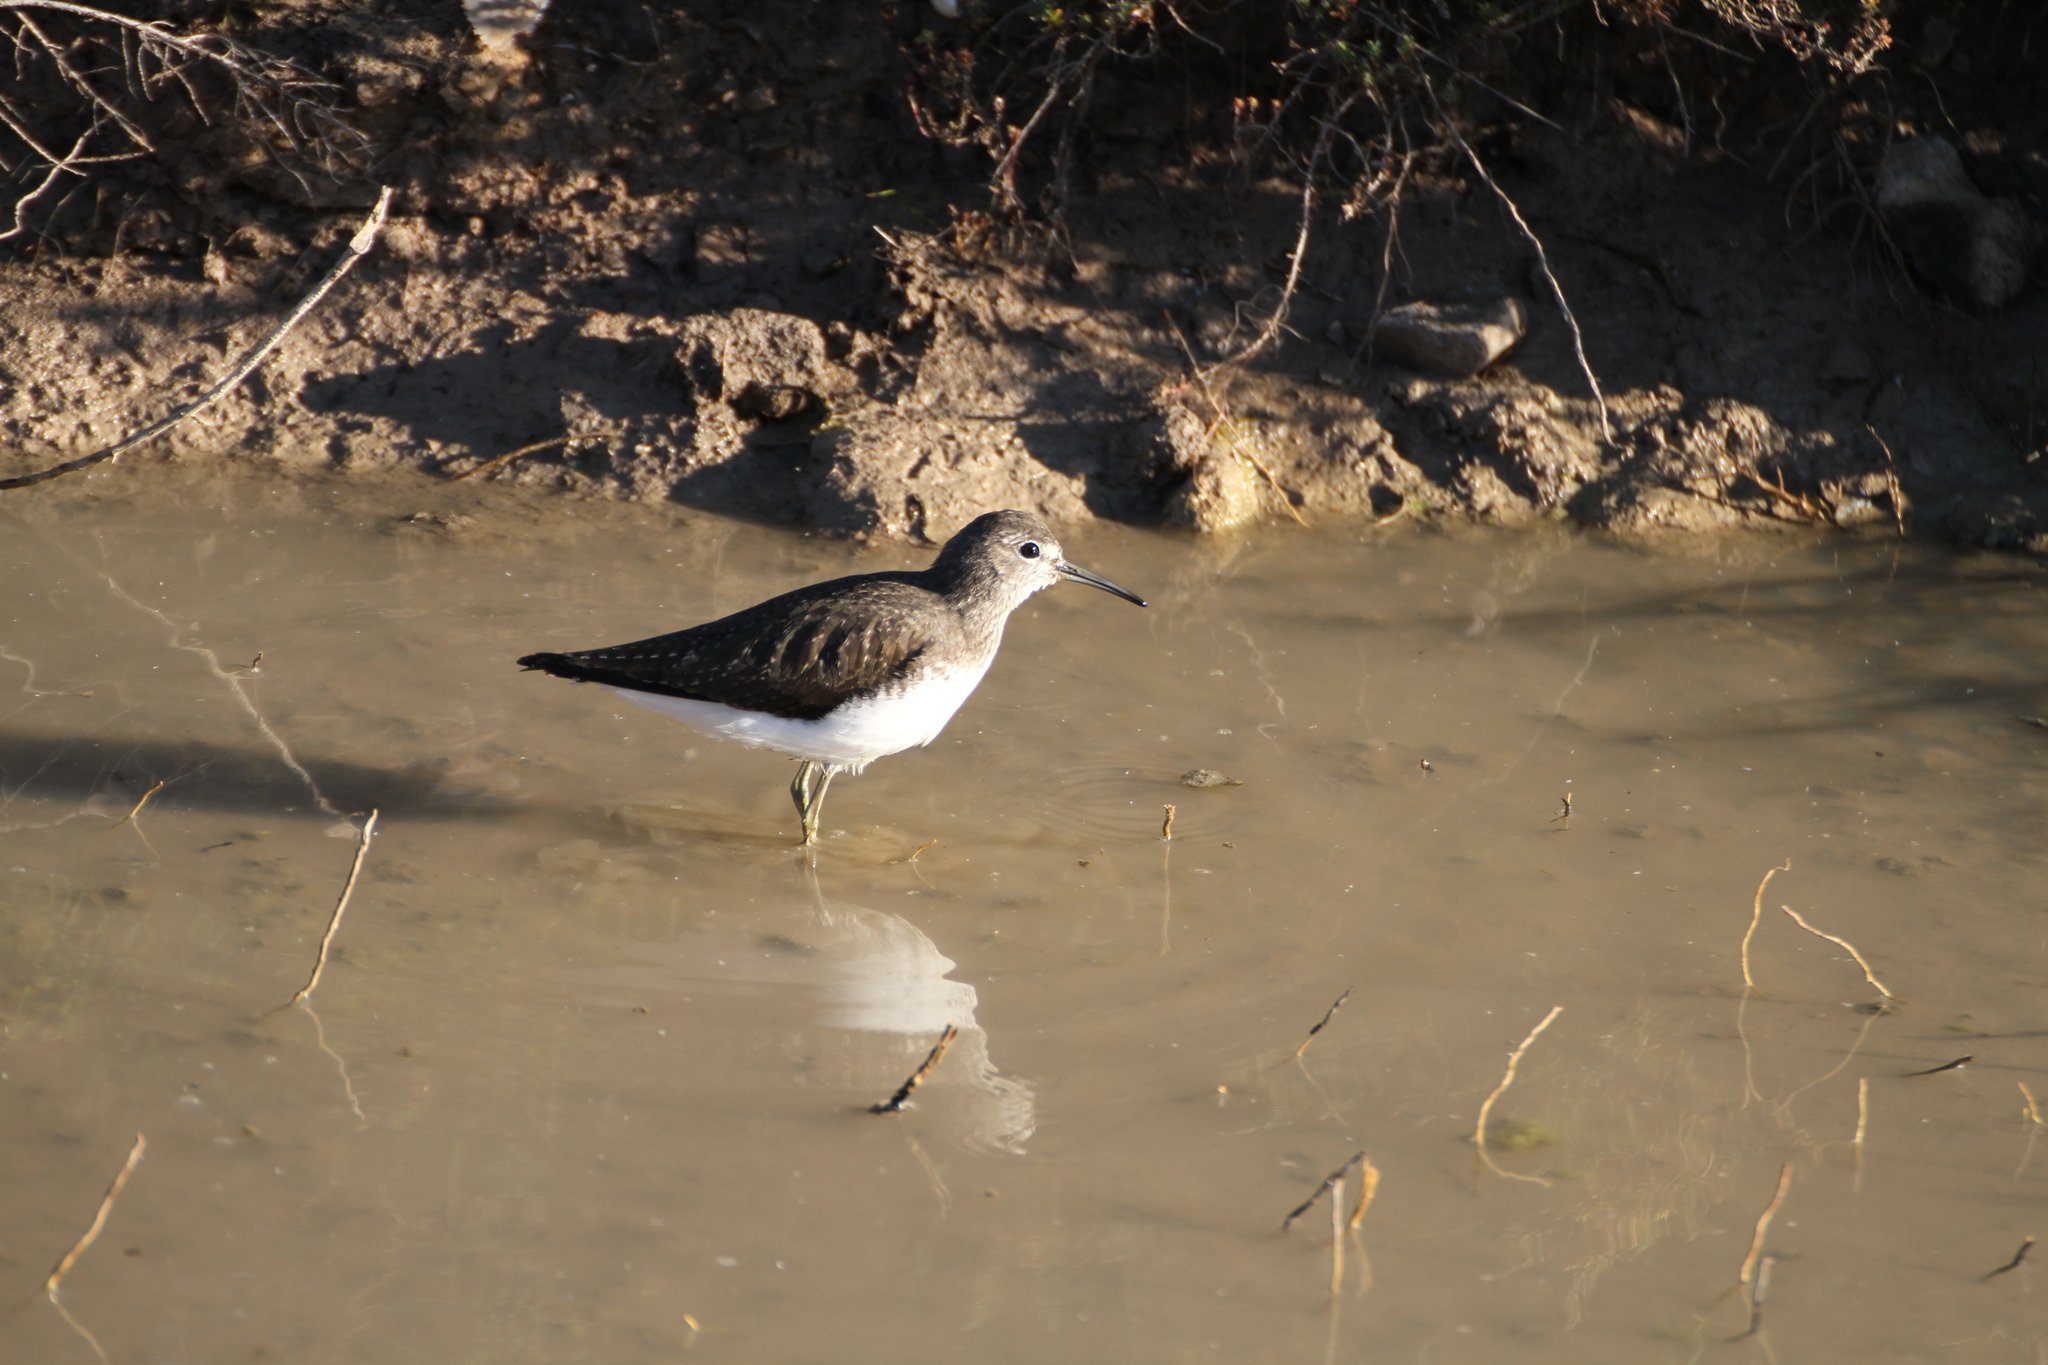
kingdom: Animalia
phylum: Chordata
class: Aves
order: Charadriiformes
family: Scolopacidae
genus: Tringa
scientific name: Tringa ochropus
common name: Green sandpiper
